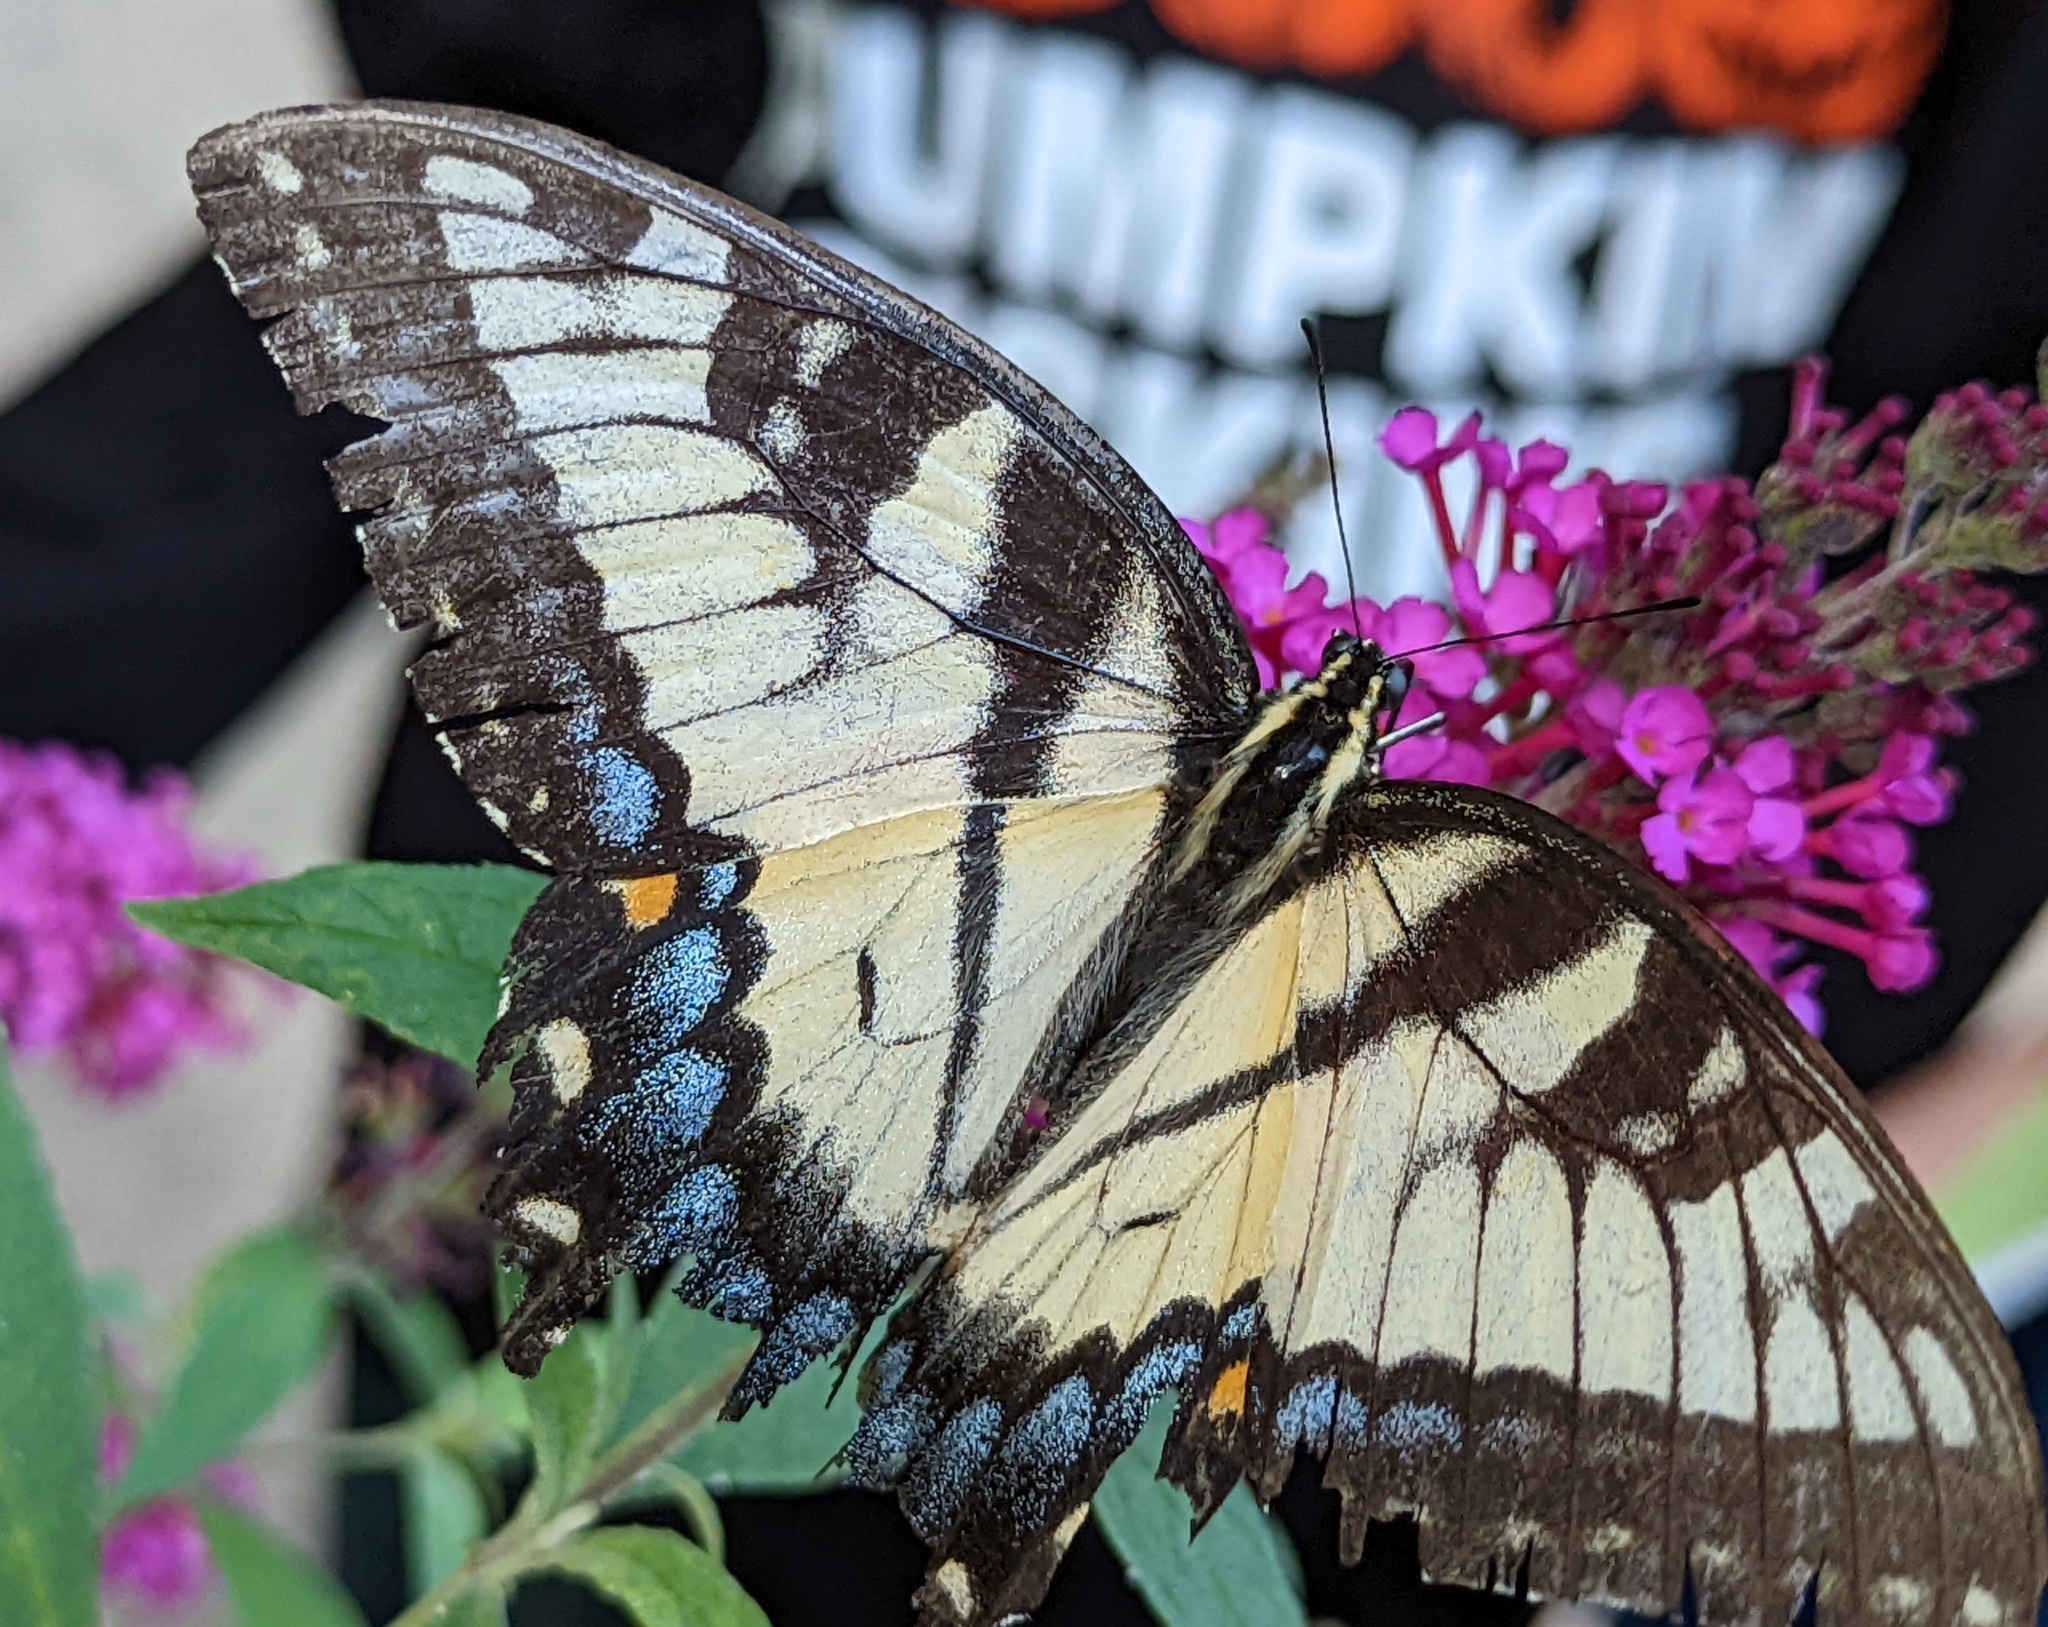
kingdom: Animalia
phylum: Arthropoda
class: Insecta
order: Lepidoptera
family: Papilionidae
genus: Papilio
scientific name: Papilio glaucus
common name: Tiger swallowtail
